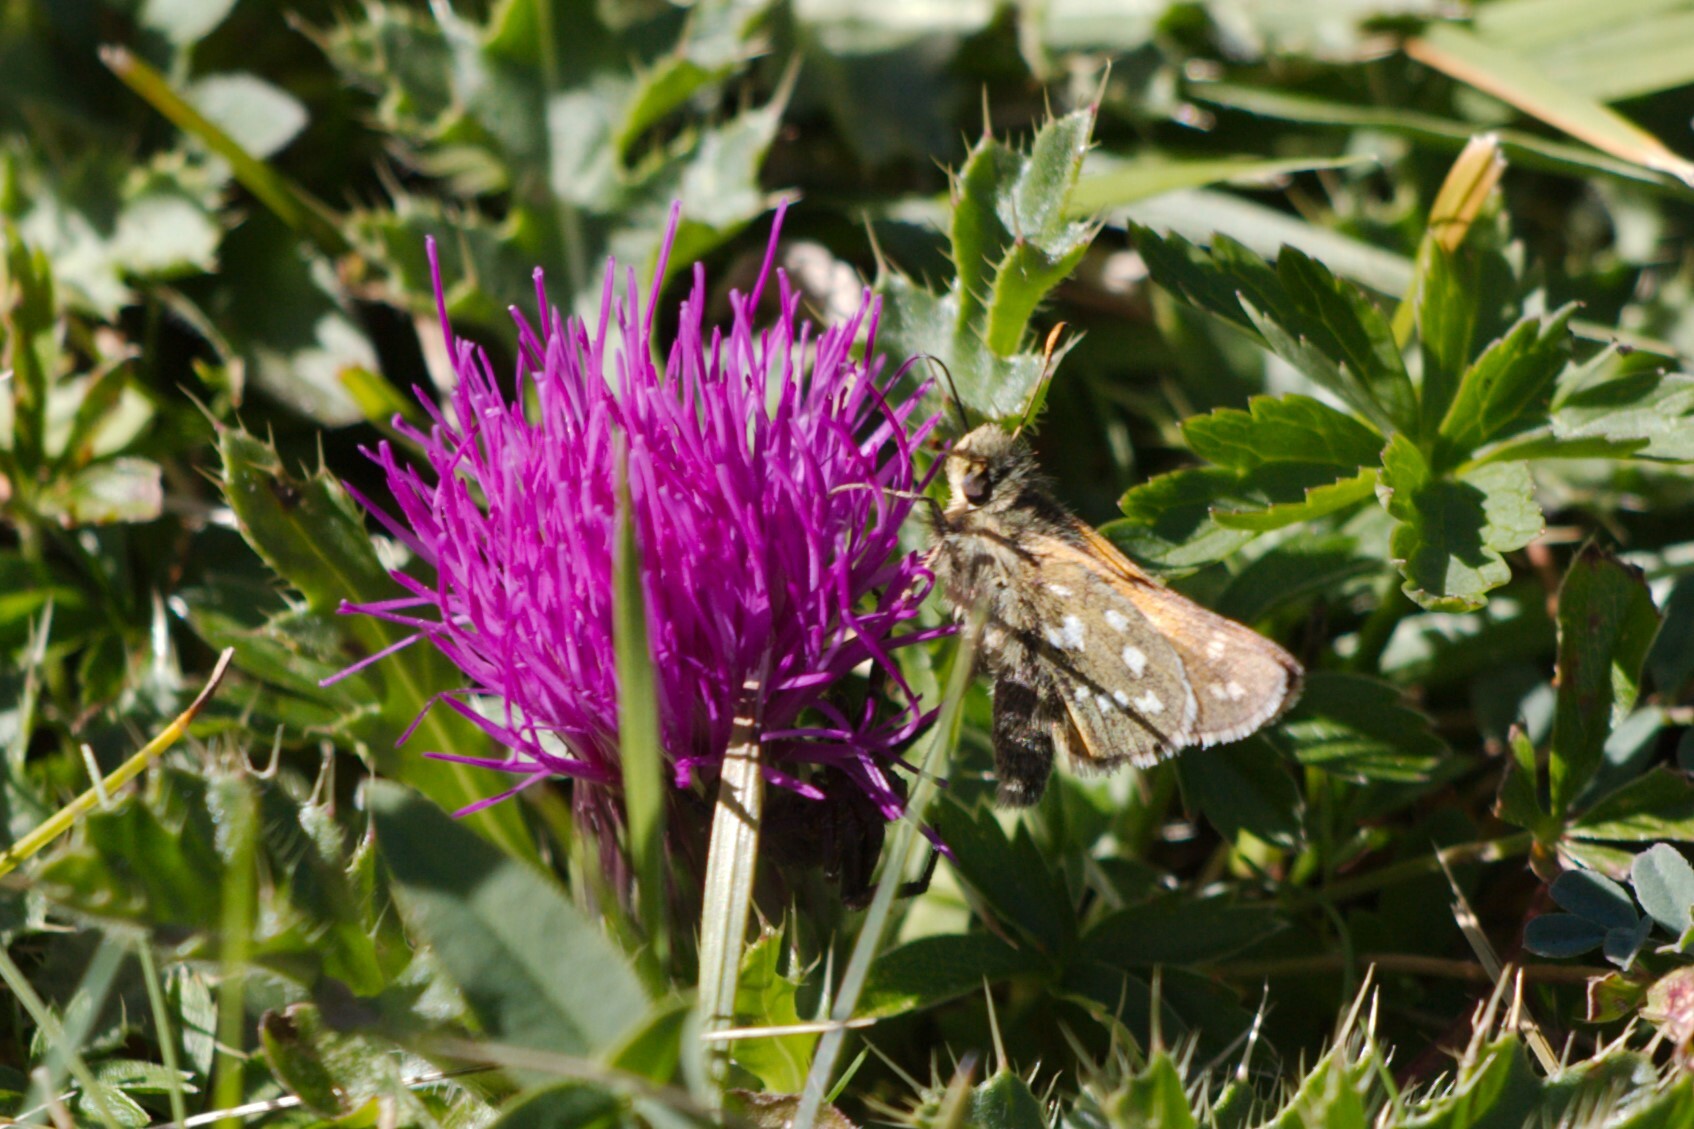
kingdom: Animalia
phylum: Arthropoda
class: Insecta
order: Lepidoptera
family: Hesperiidae
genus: Hesperia
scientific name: Hesperia comma
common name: Common branded skipper
